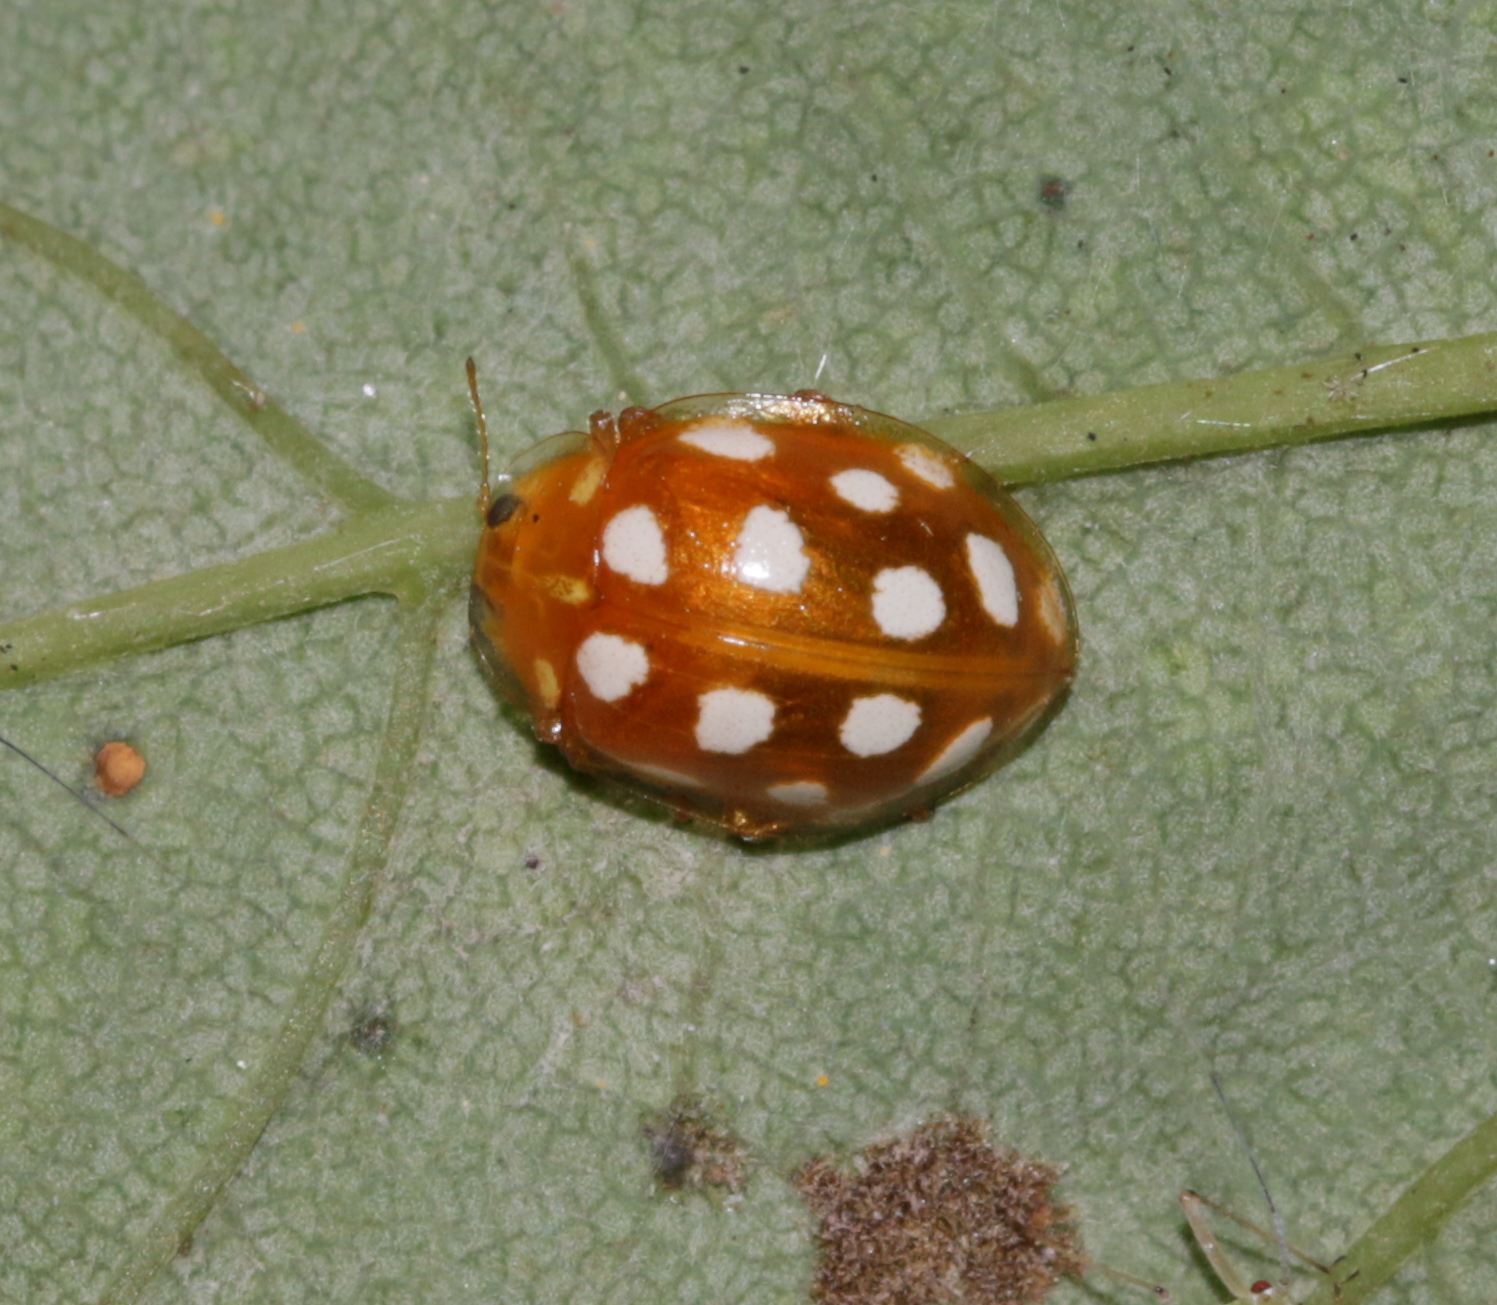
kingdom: Animalia
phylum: Arthropoda
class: Insecta
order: Coleoptera
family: Coccinellidae
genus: Halyzia
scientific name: Halyzia sedecimguttata
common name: Orange ladybird
